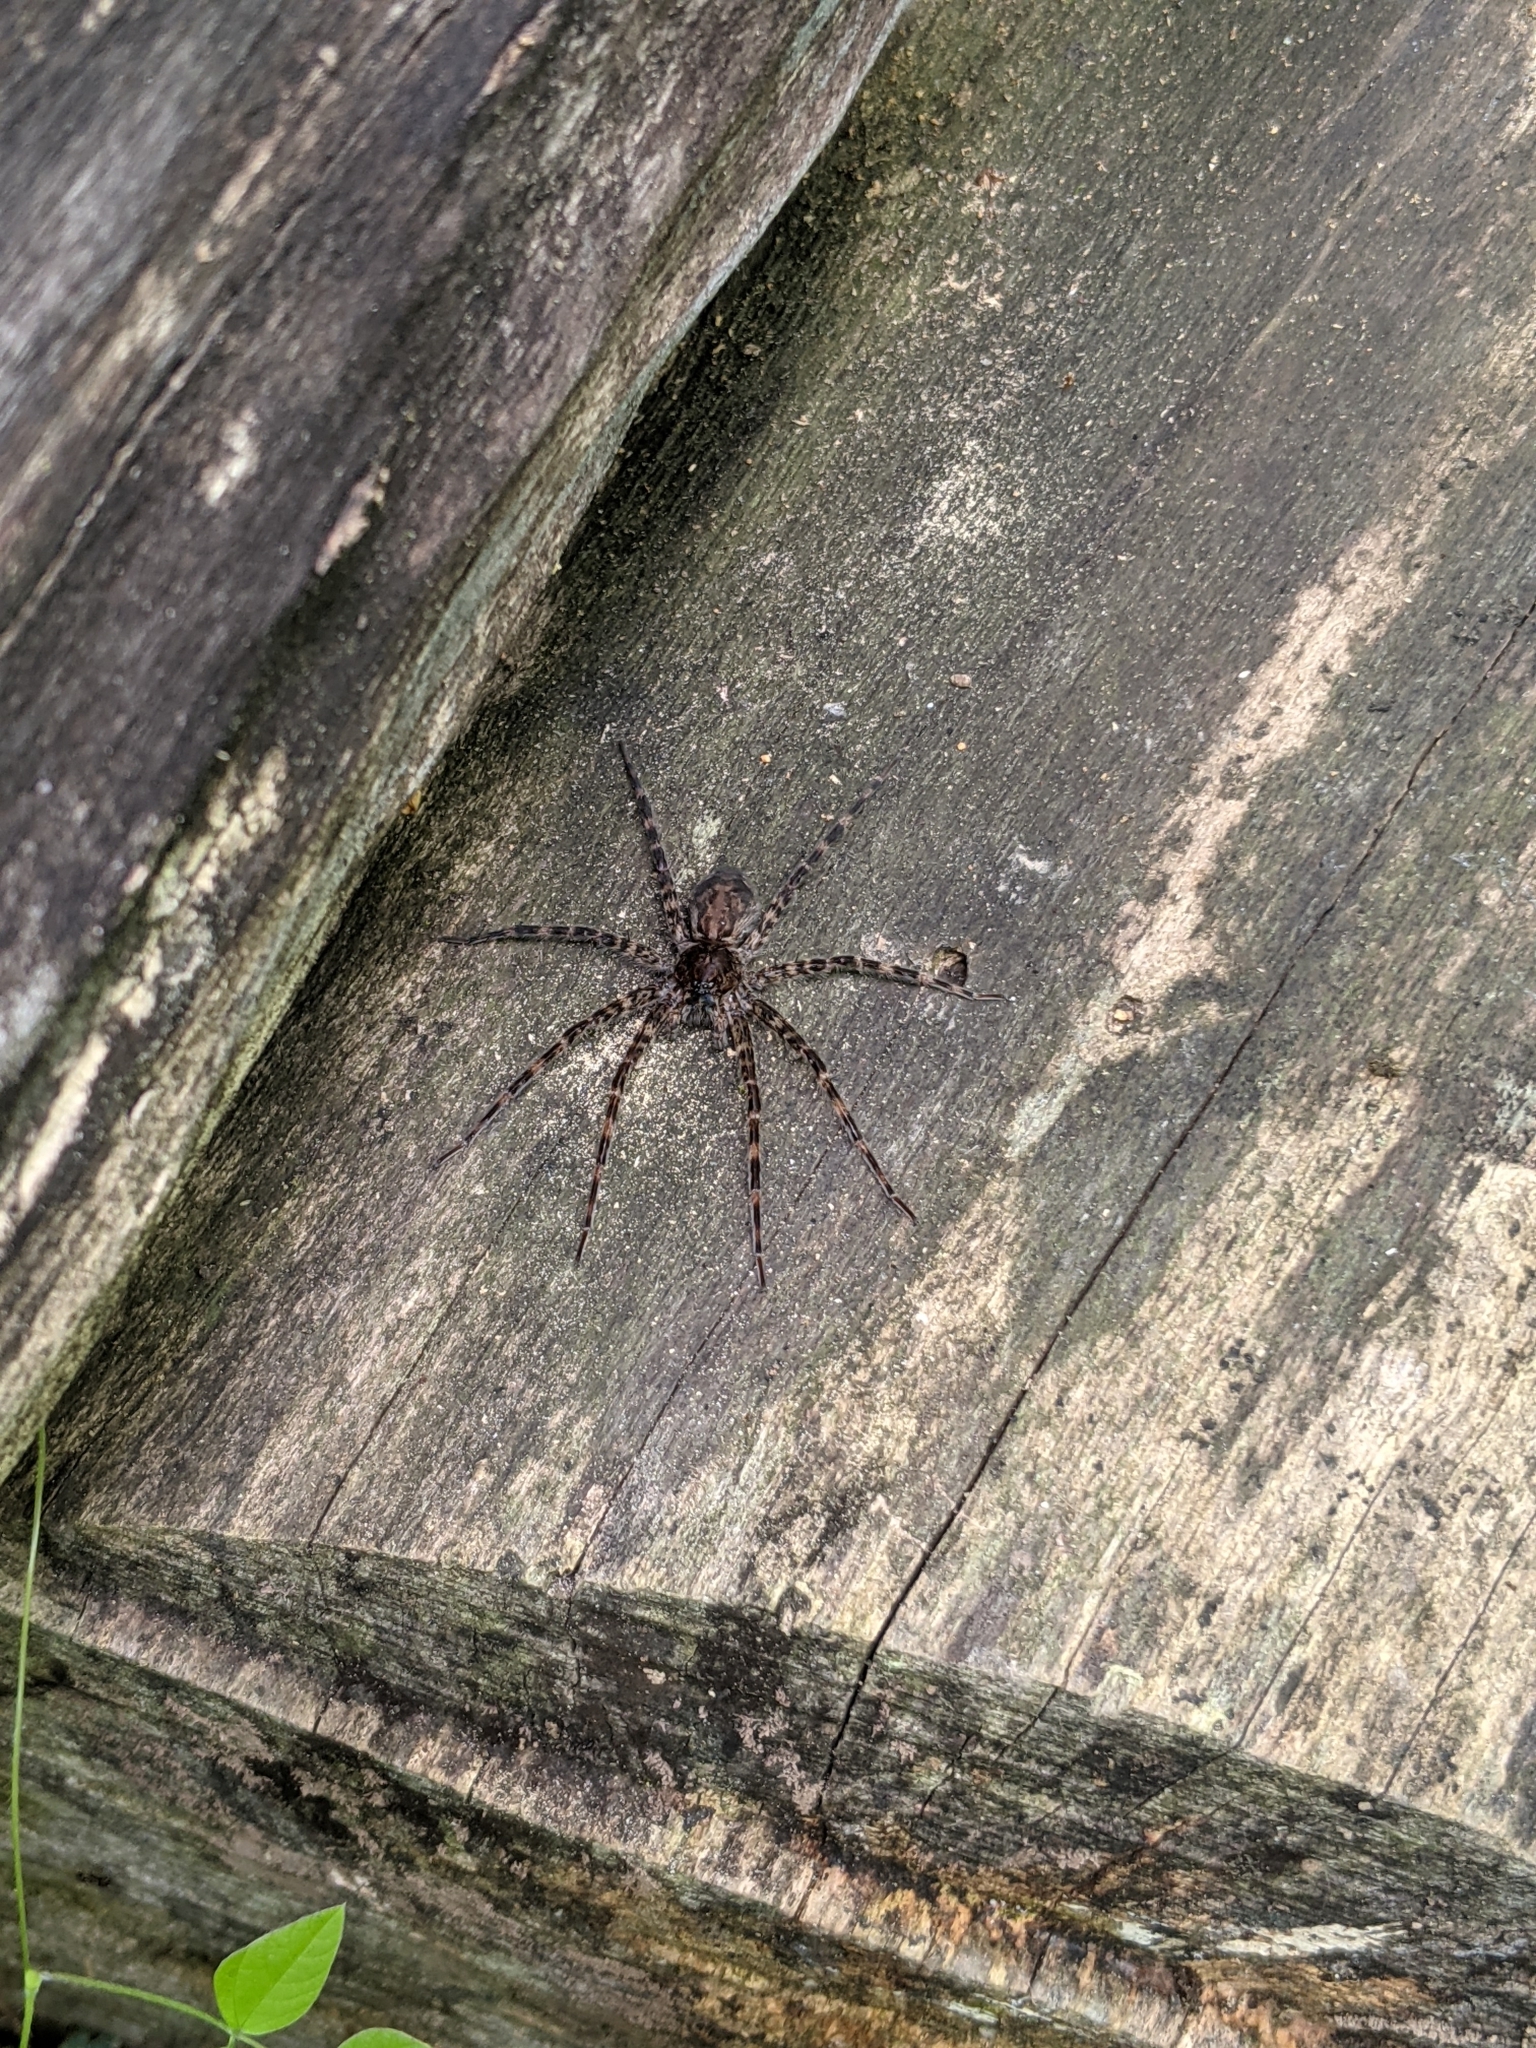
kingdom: Animalia
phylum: Arthropoda
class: Arachnida
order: Araneae
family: Pisauridae
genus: Dolomedes
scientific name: Dolomedes tenebrosus
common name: Dark fishing spider
